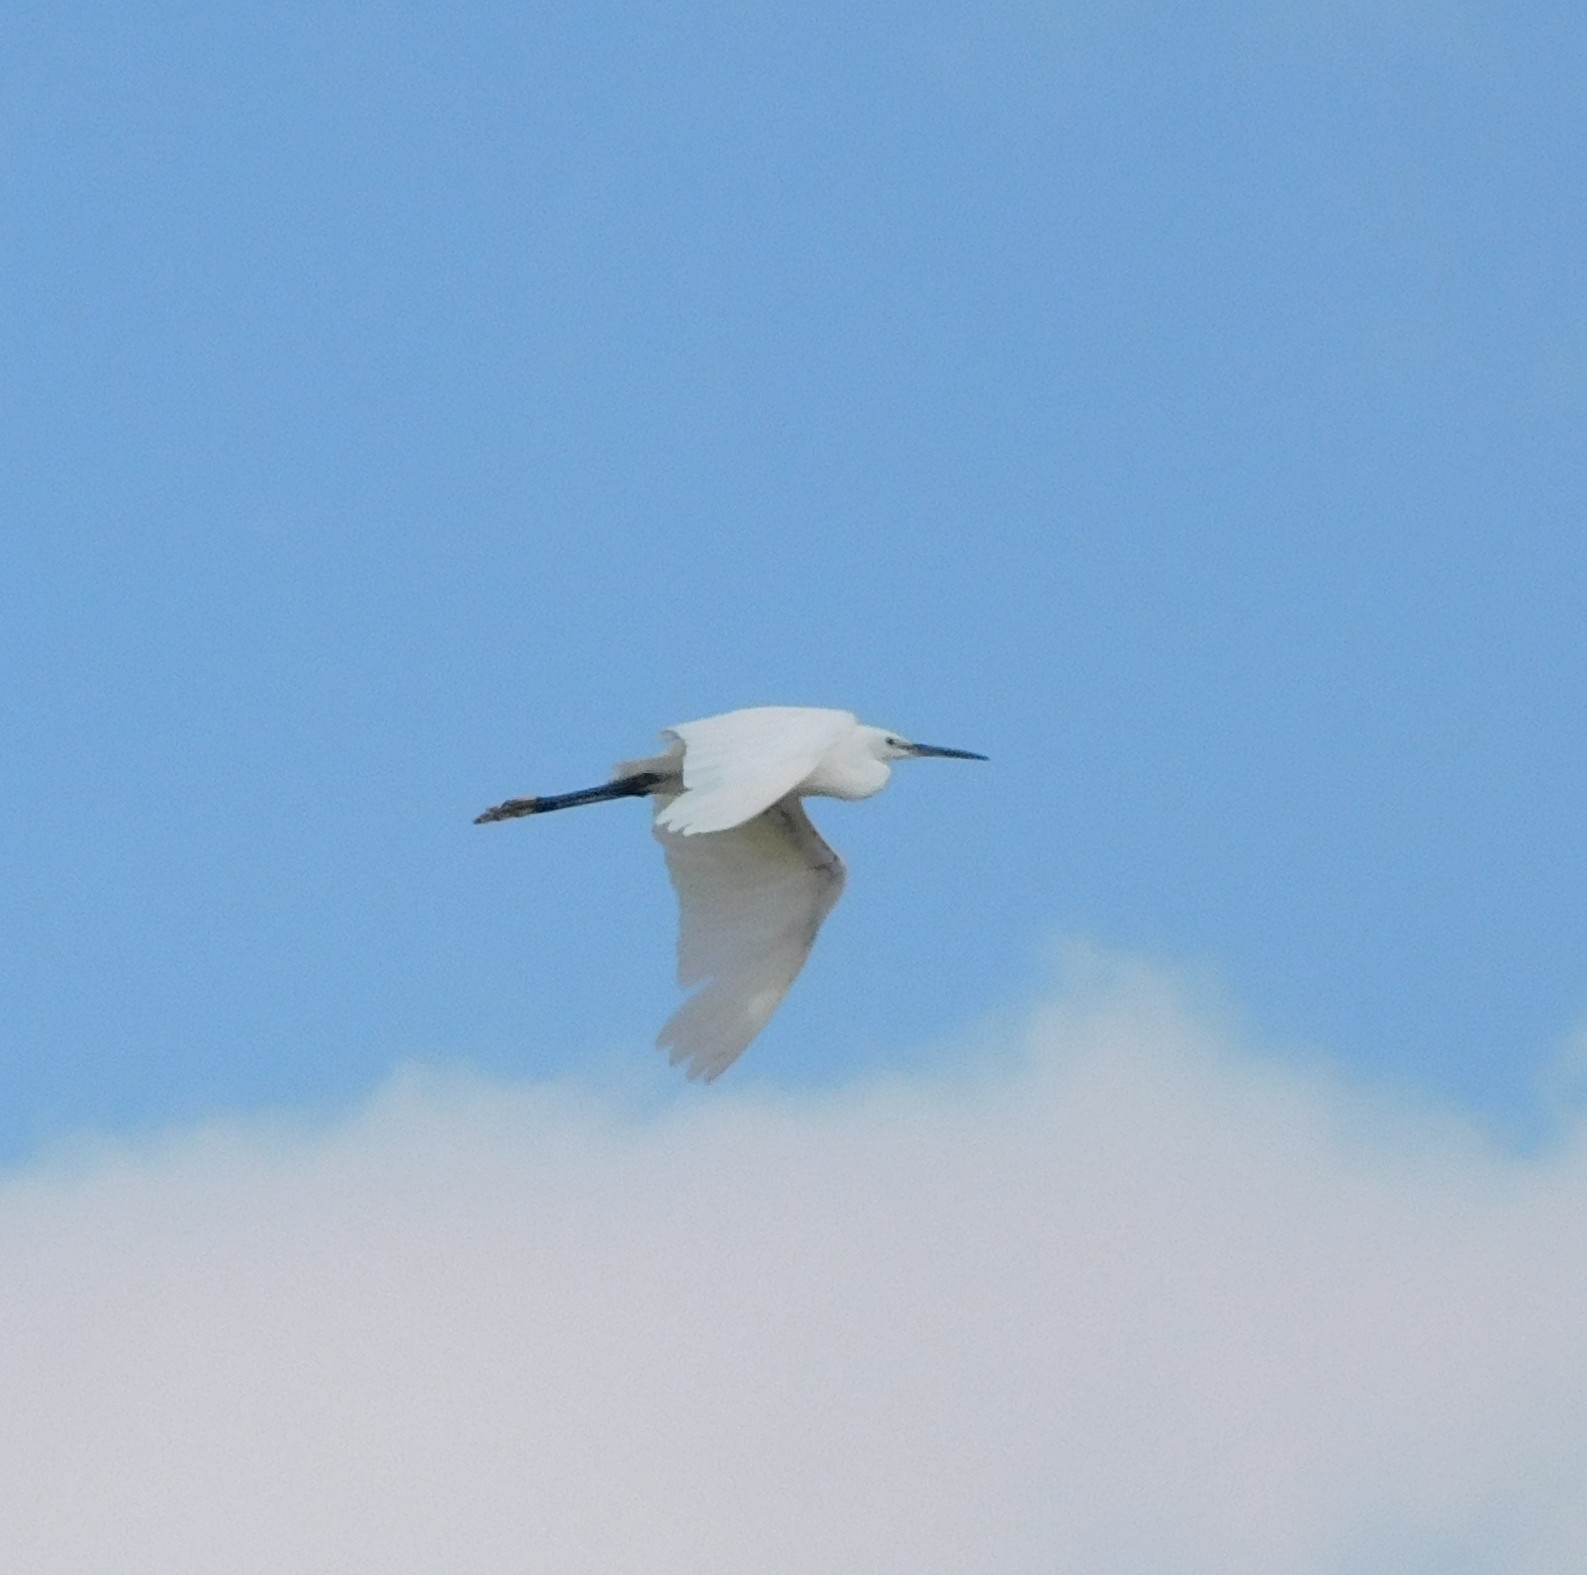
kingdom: Animalia
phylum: Chordata
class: Aves
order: Pelecaniformes
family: Ardeidae
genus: Egretta
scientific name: Egretta garzetta
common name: Little egret
